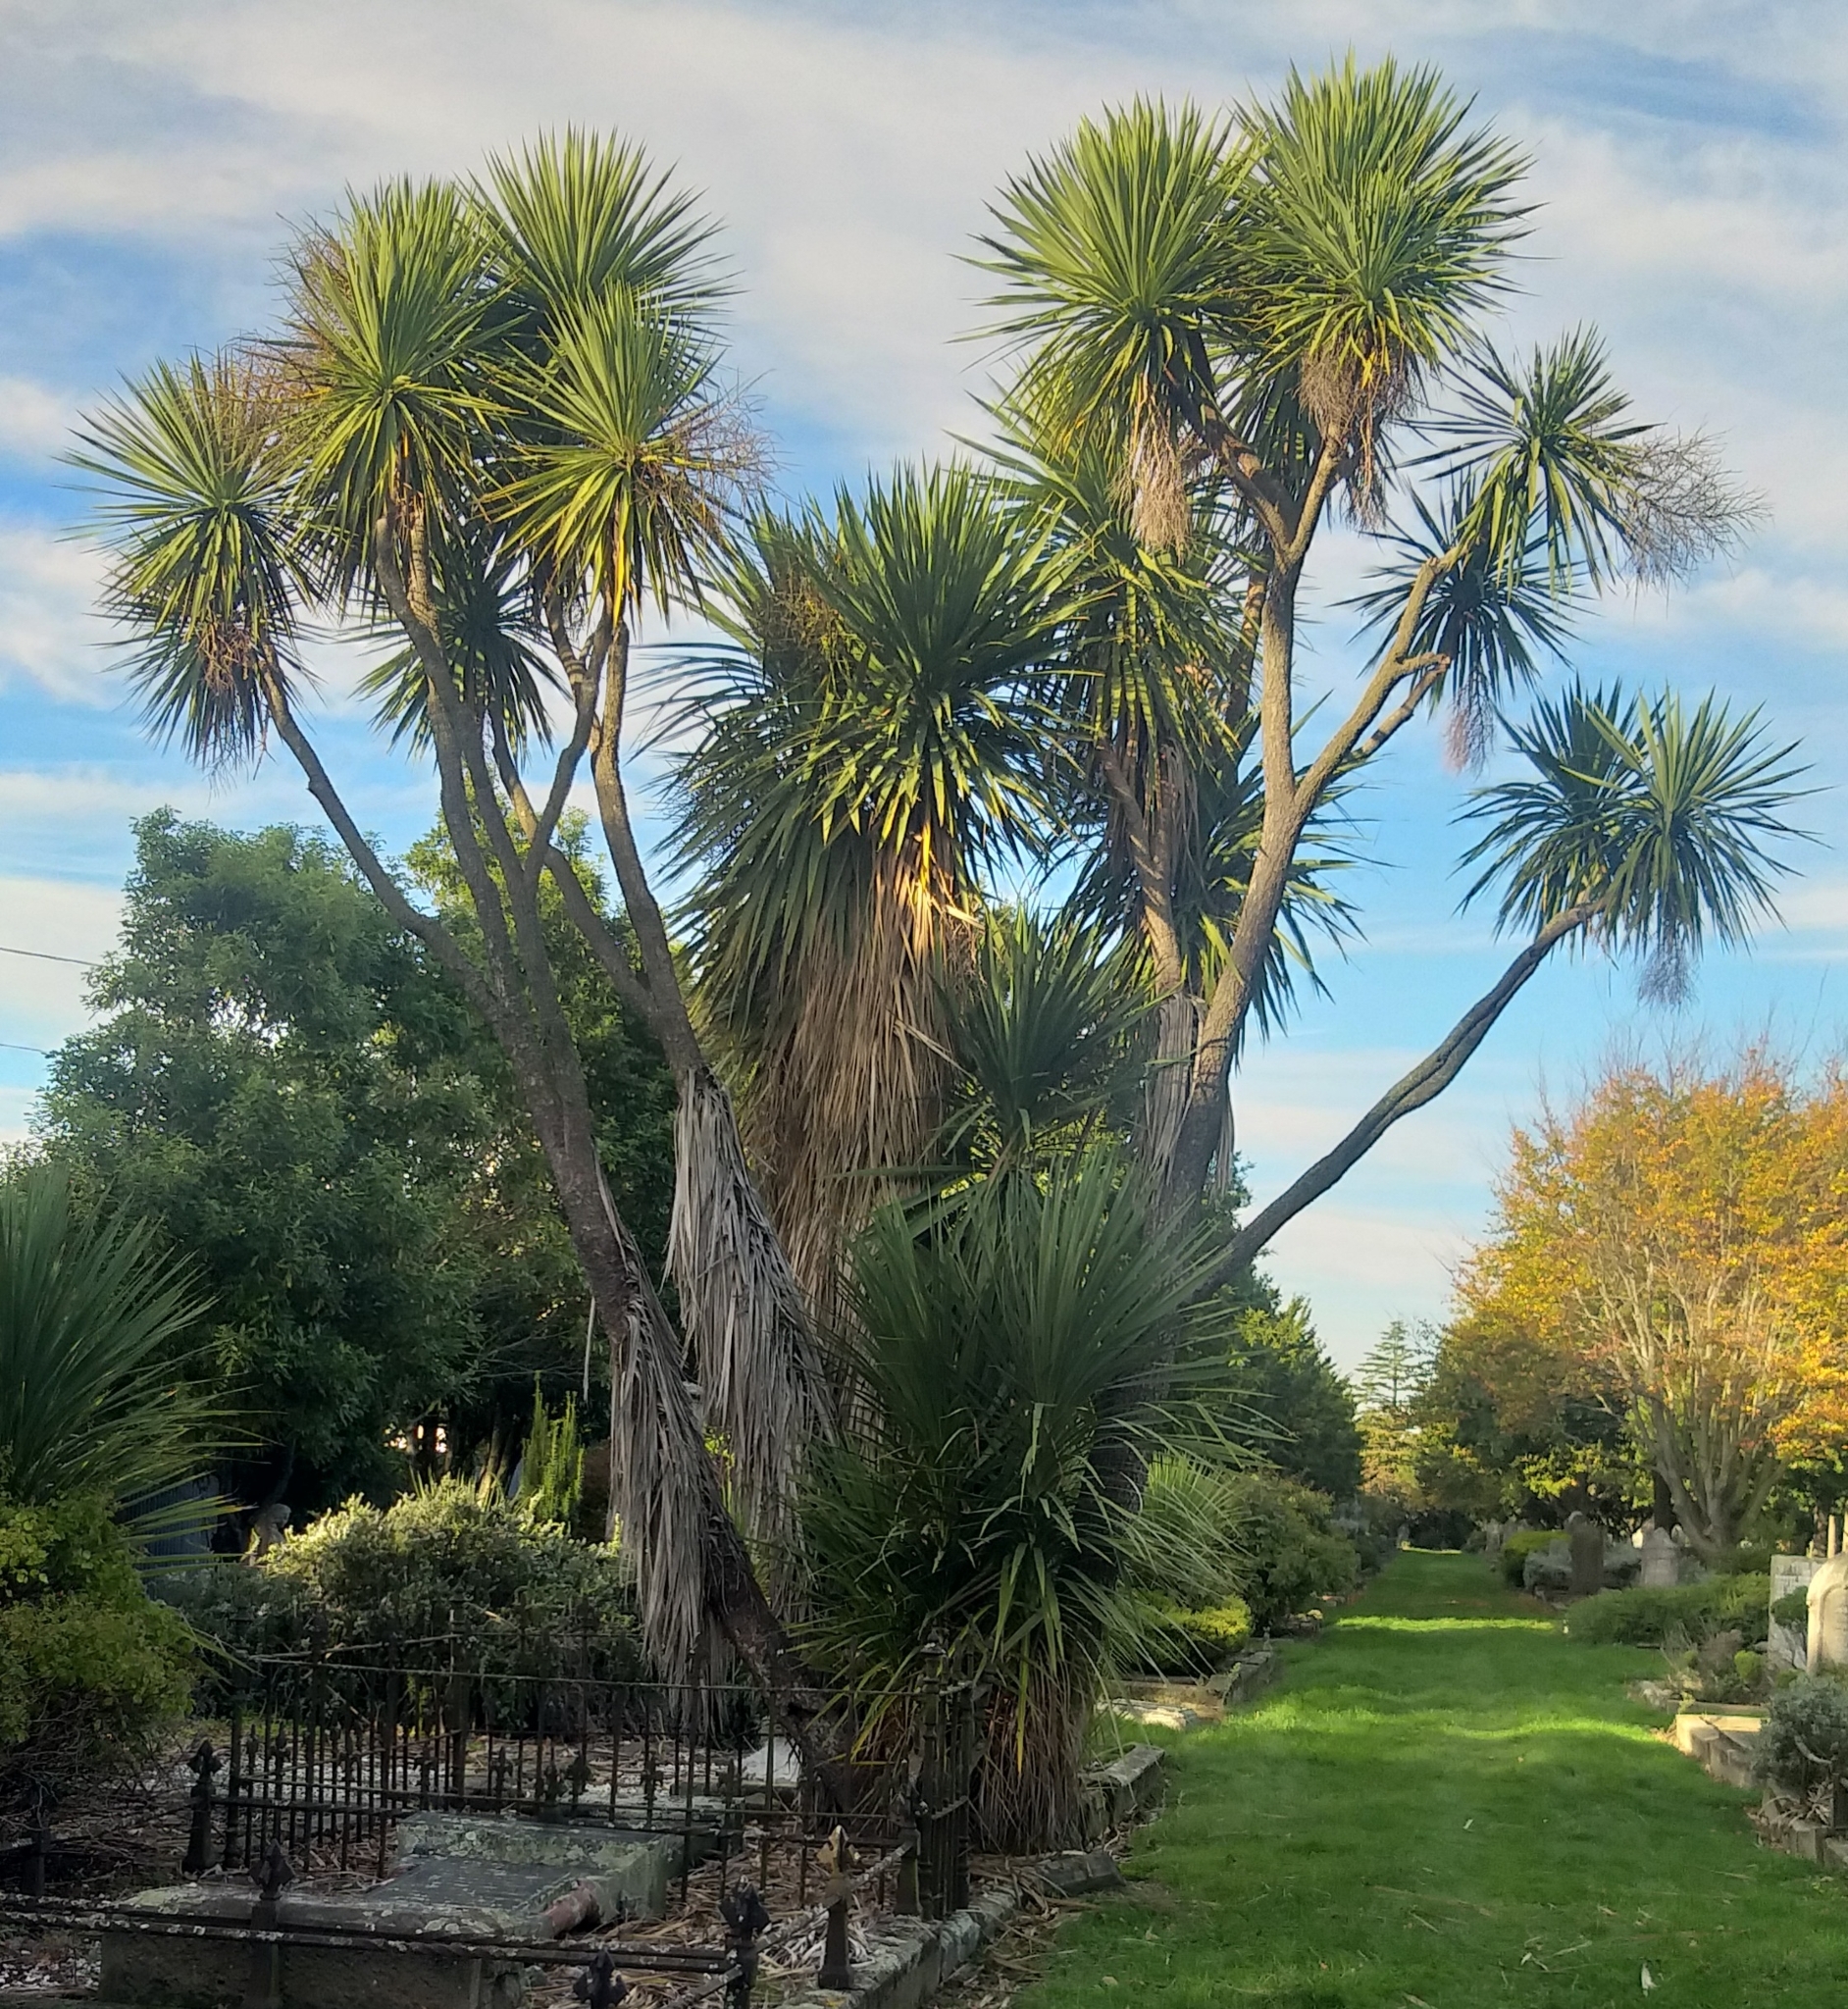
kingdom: Plantae
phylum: Tracheophyta
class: Liliopsida
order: Asparagales
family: Asparagaceae
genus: Cordyline
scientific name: Cordyline australis
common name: Cabbage-palm
